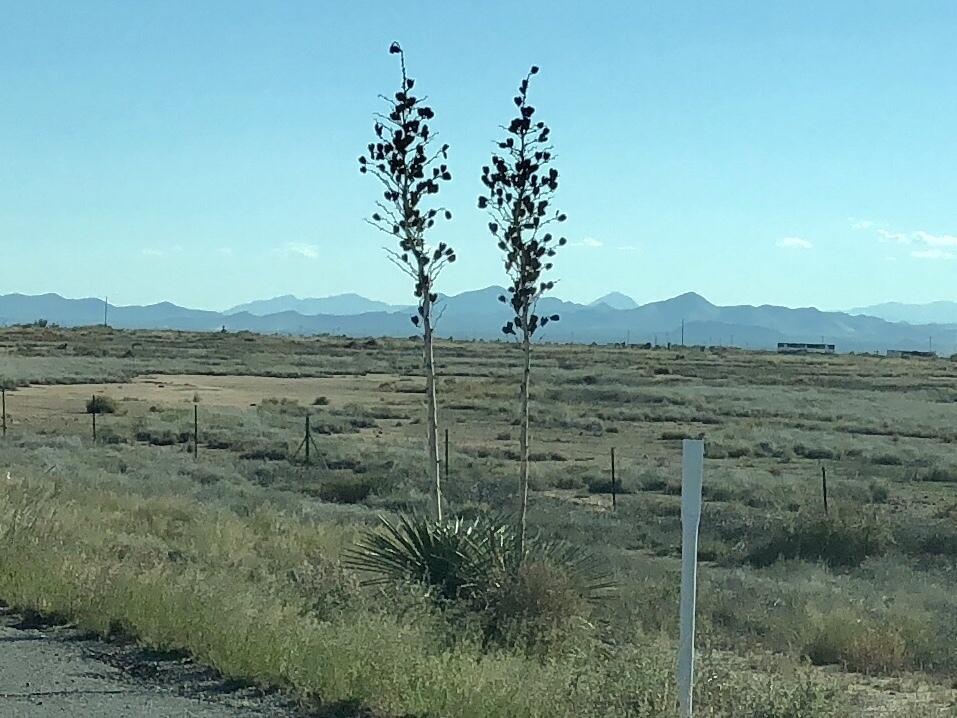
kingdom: Plantae
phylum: Tracheophyta
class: Liliopsida
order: Asparagales
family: Asparagaceae
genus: Yucca
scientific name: Yucca elata
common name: Palmella
